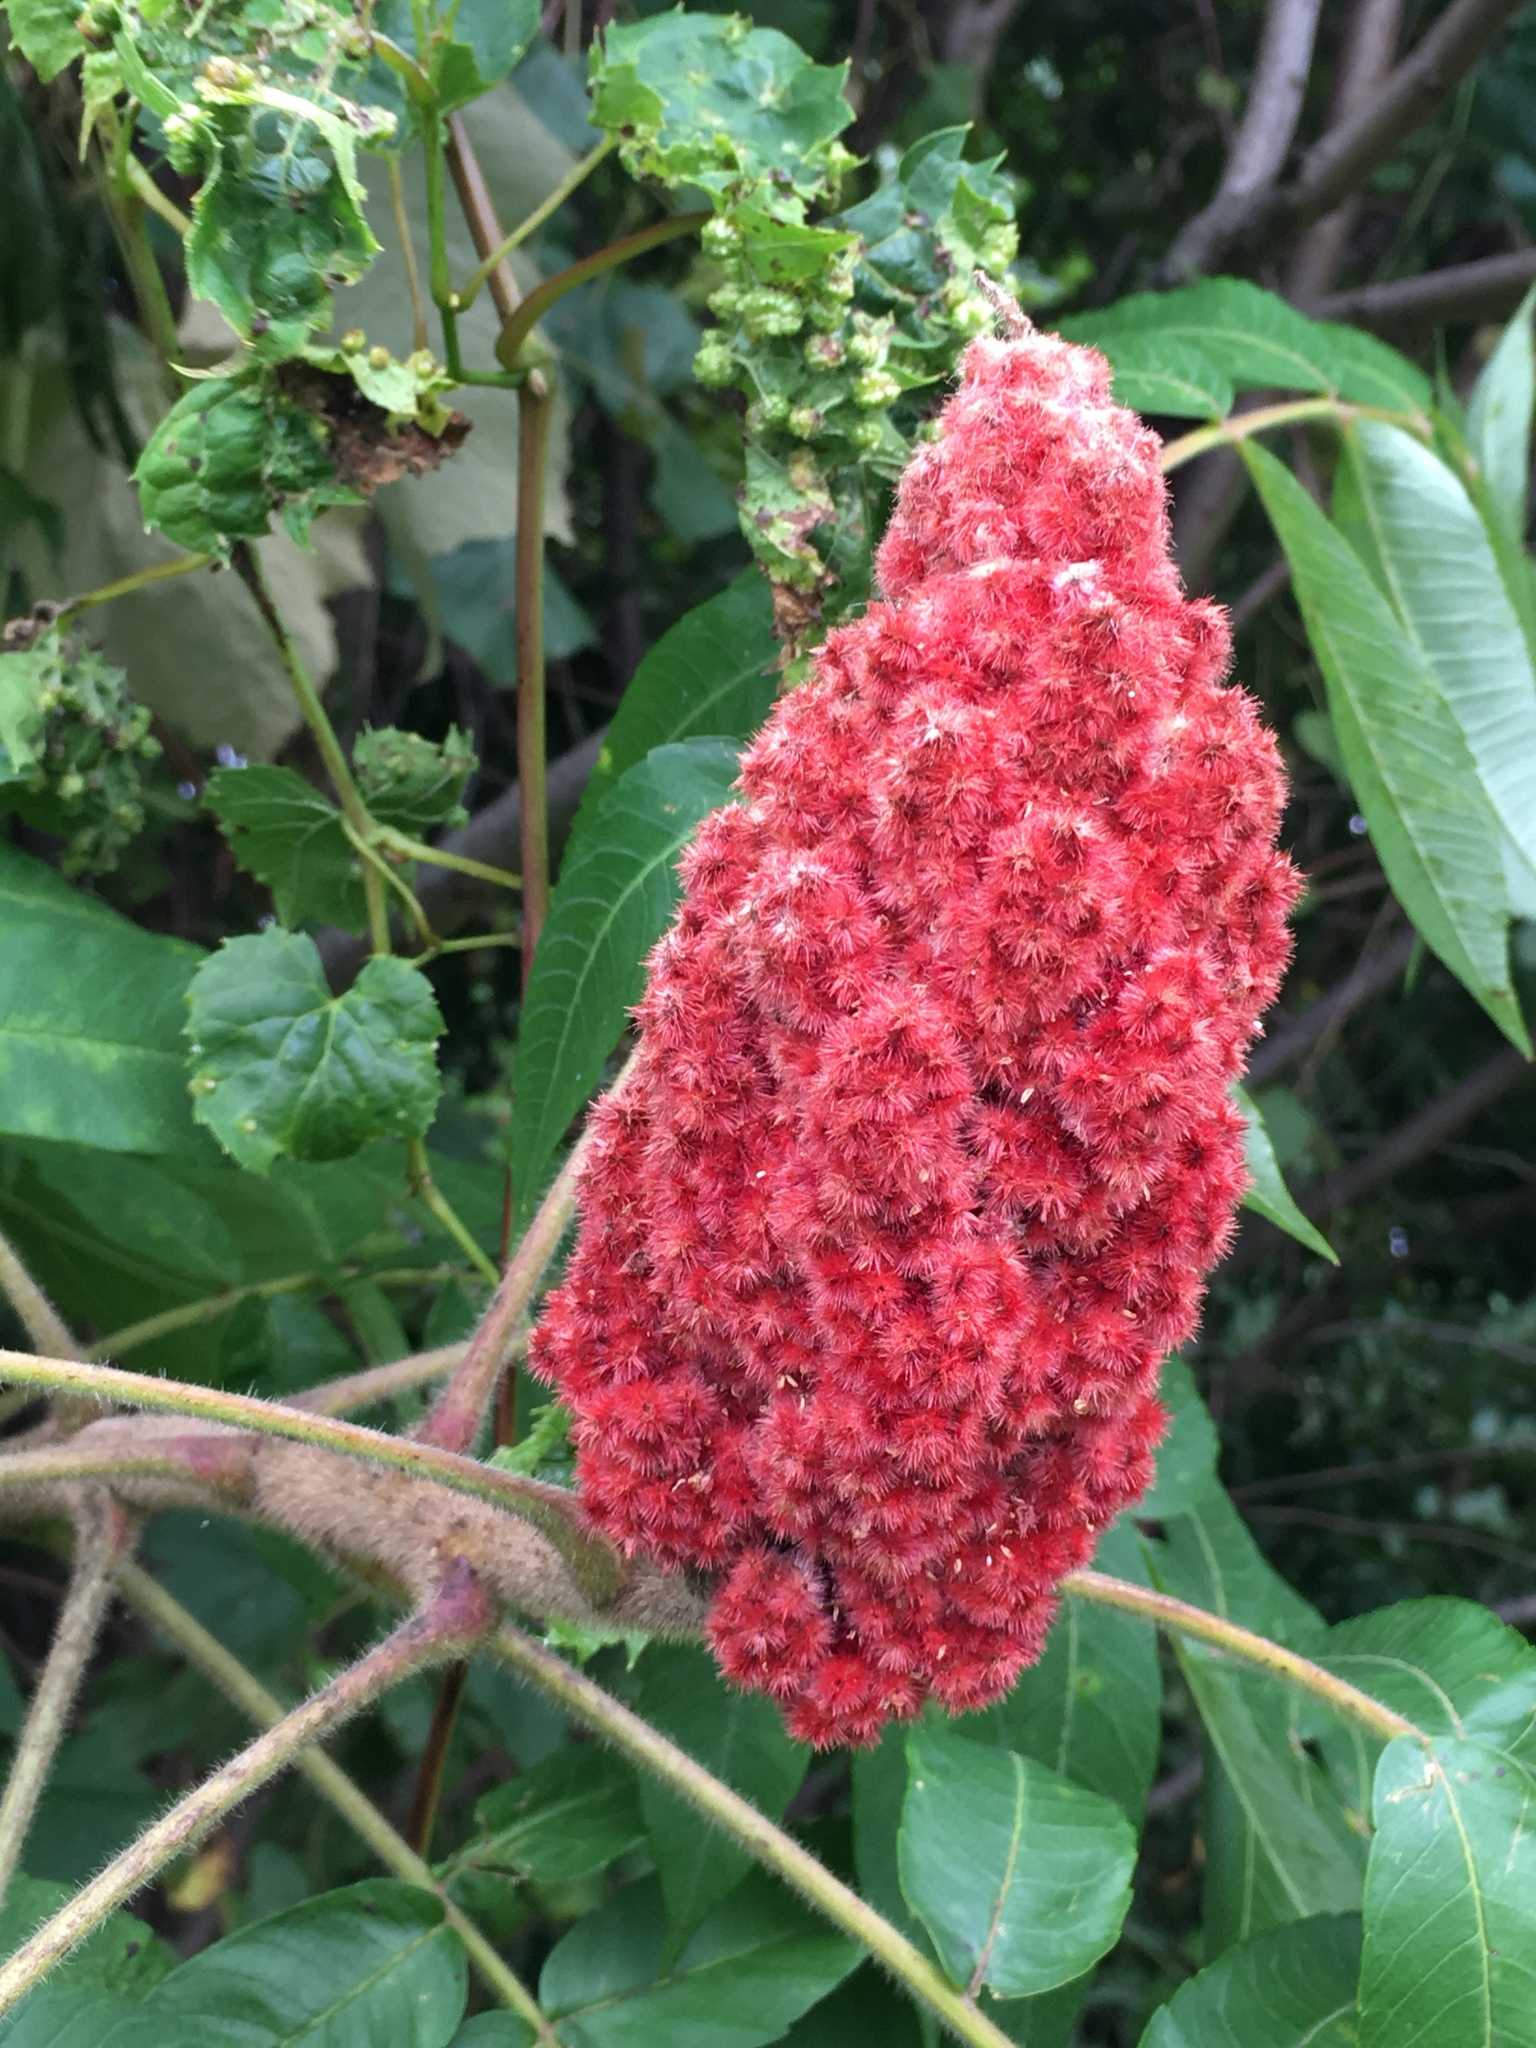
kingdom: Plantae
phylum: Tracheophyta
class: Magnoliopsida
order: Sapindales
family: Anacardiaceae
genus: Rhus
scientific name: Rhus typhina
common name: Staghorn sumac
